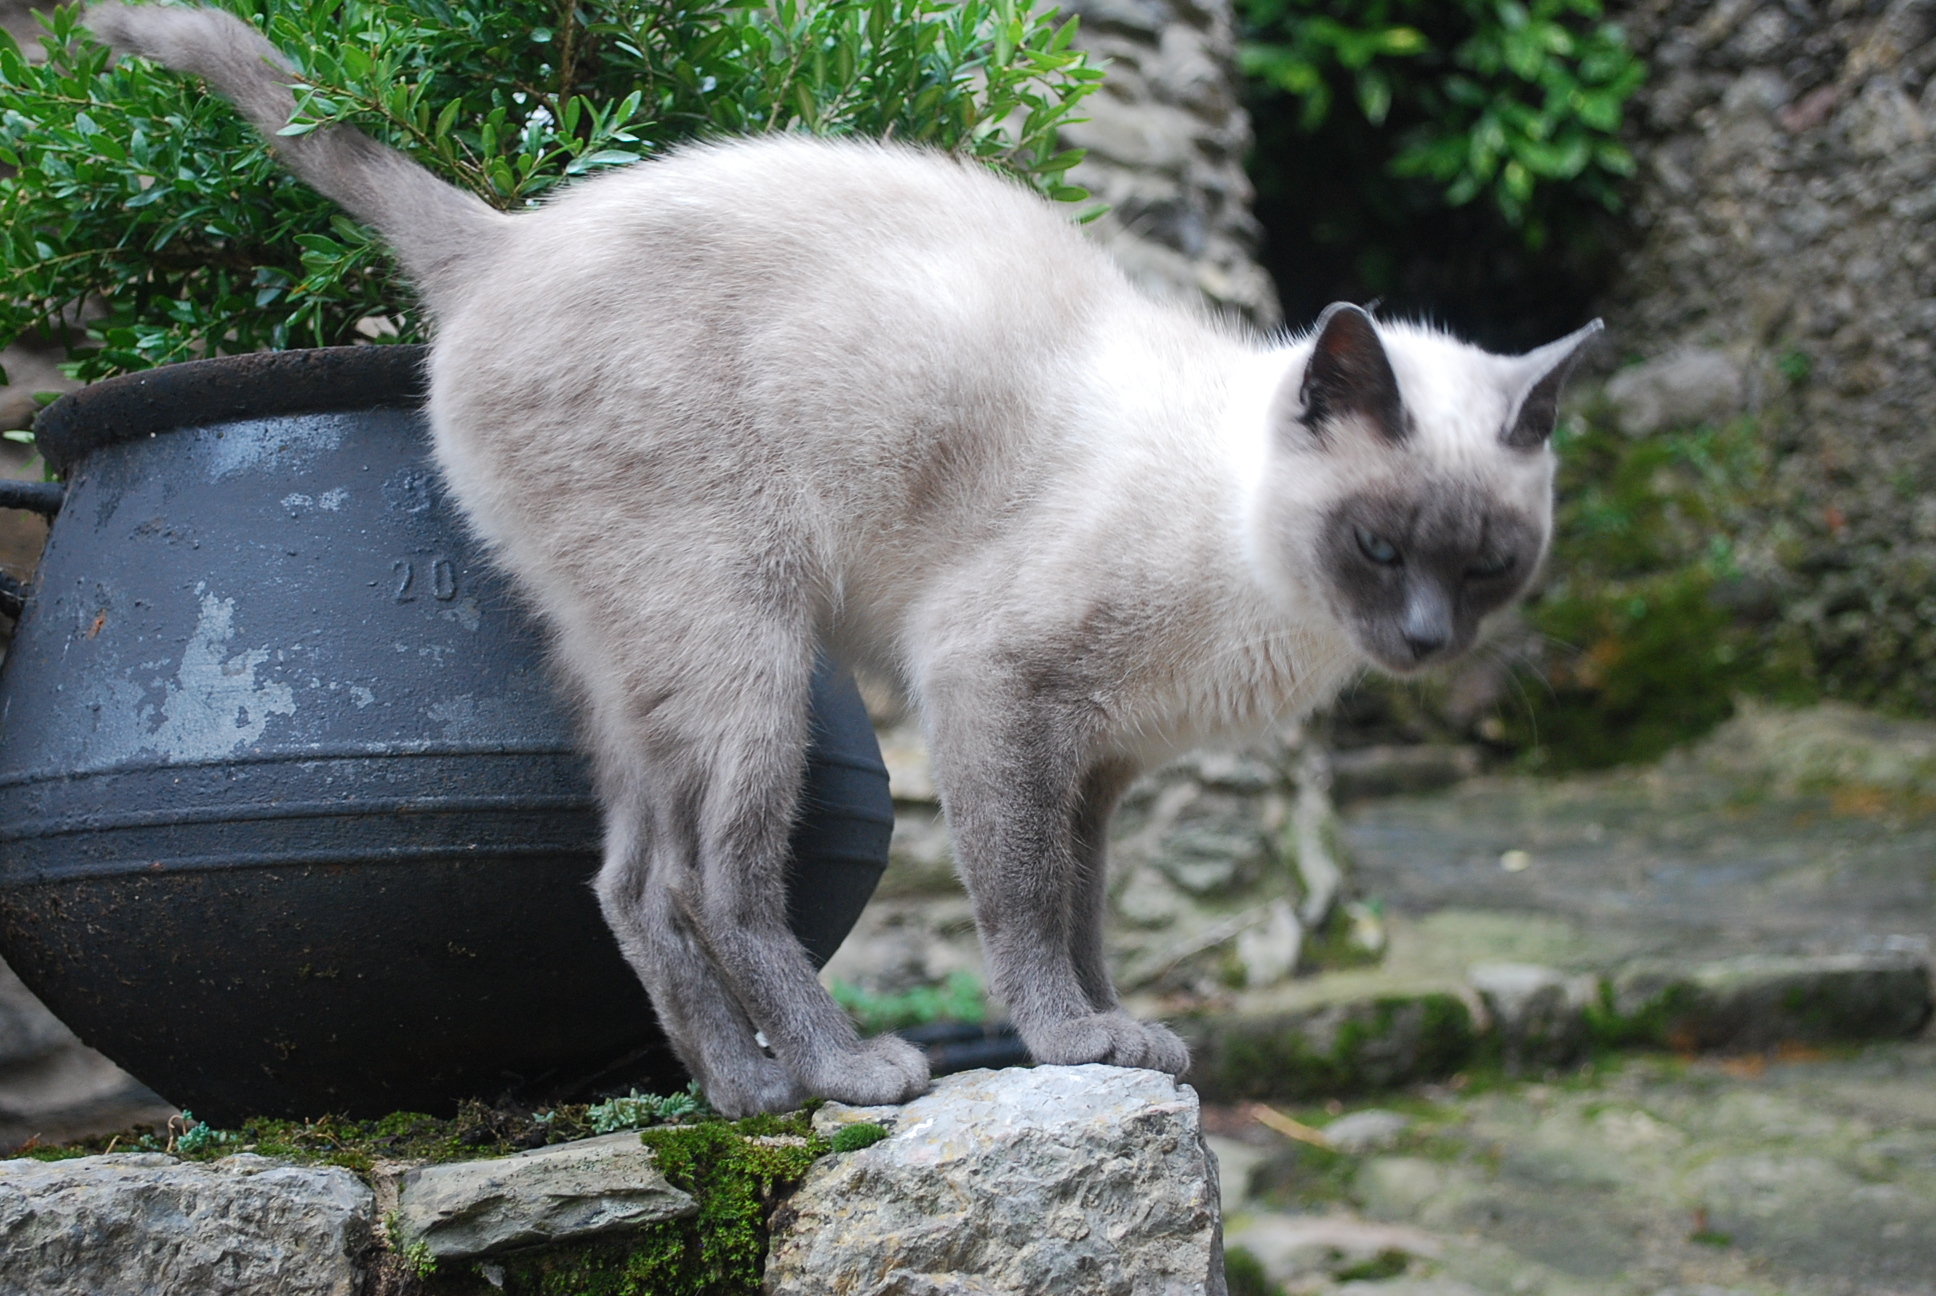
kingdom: Animalia
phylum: Chordata
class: Mammalia
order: Carnivora
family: Felidae
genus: Felis
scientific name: Felis catus
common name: Domestic cat
